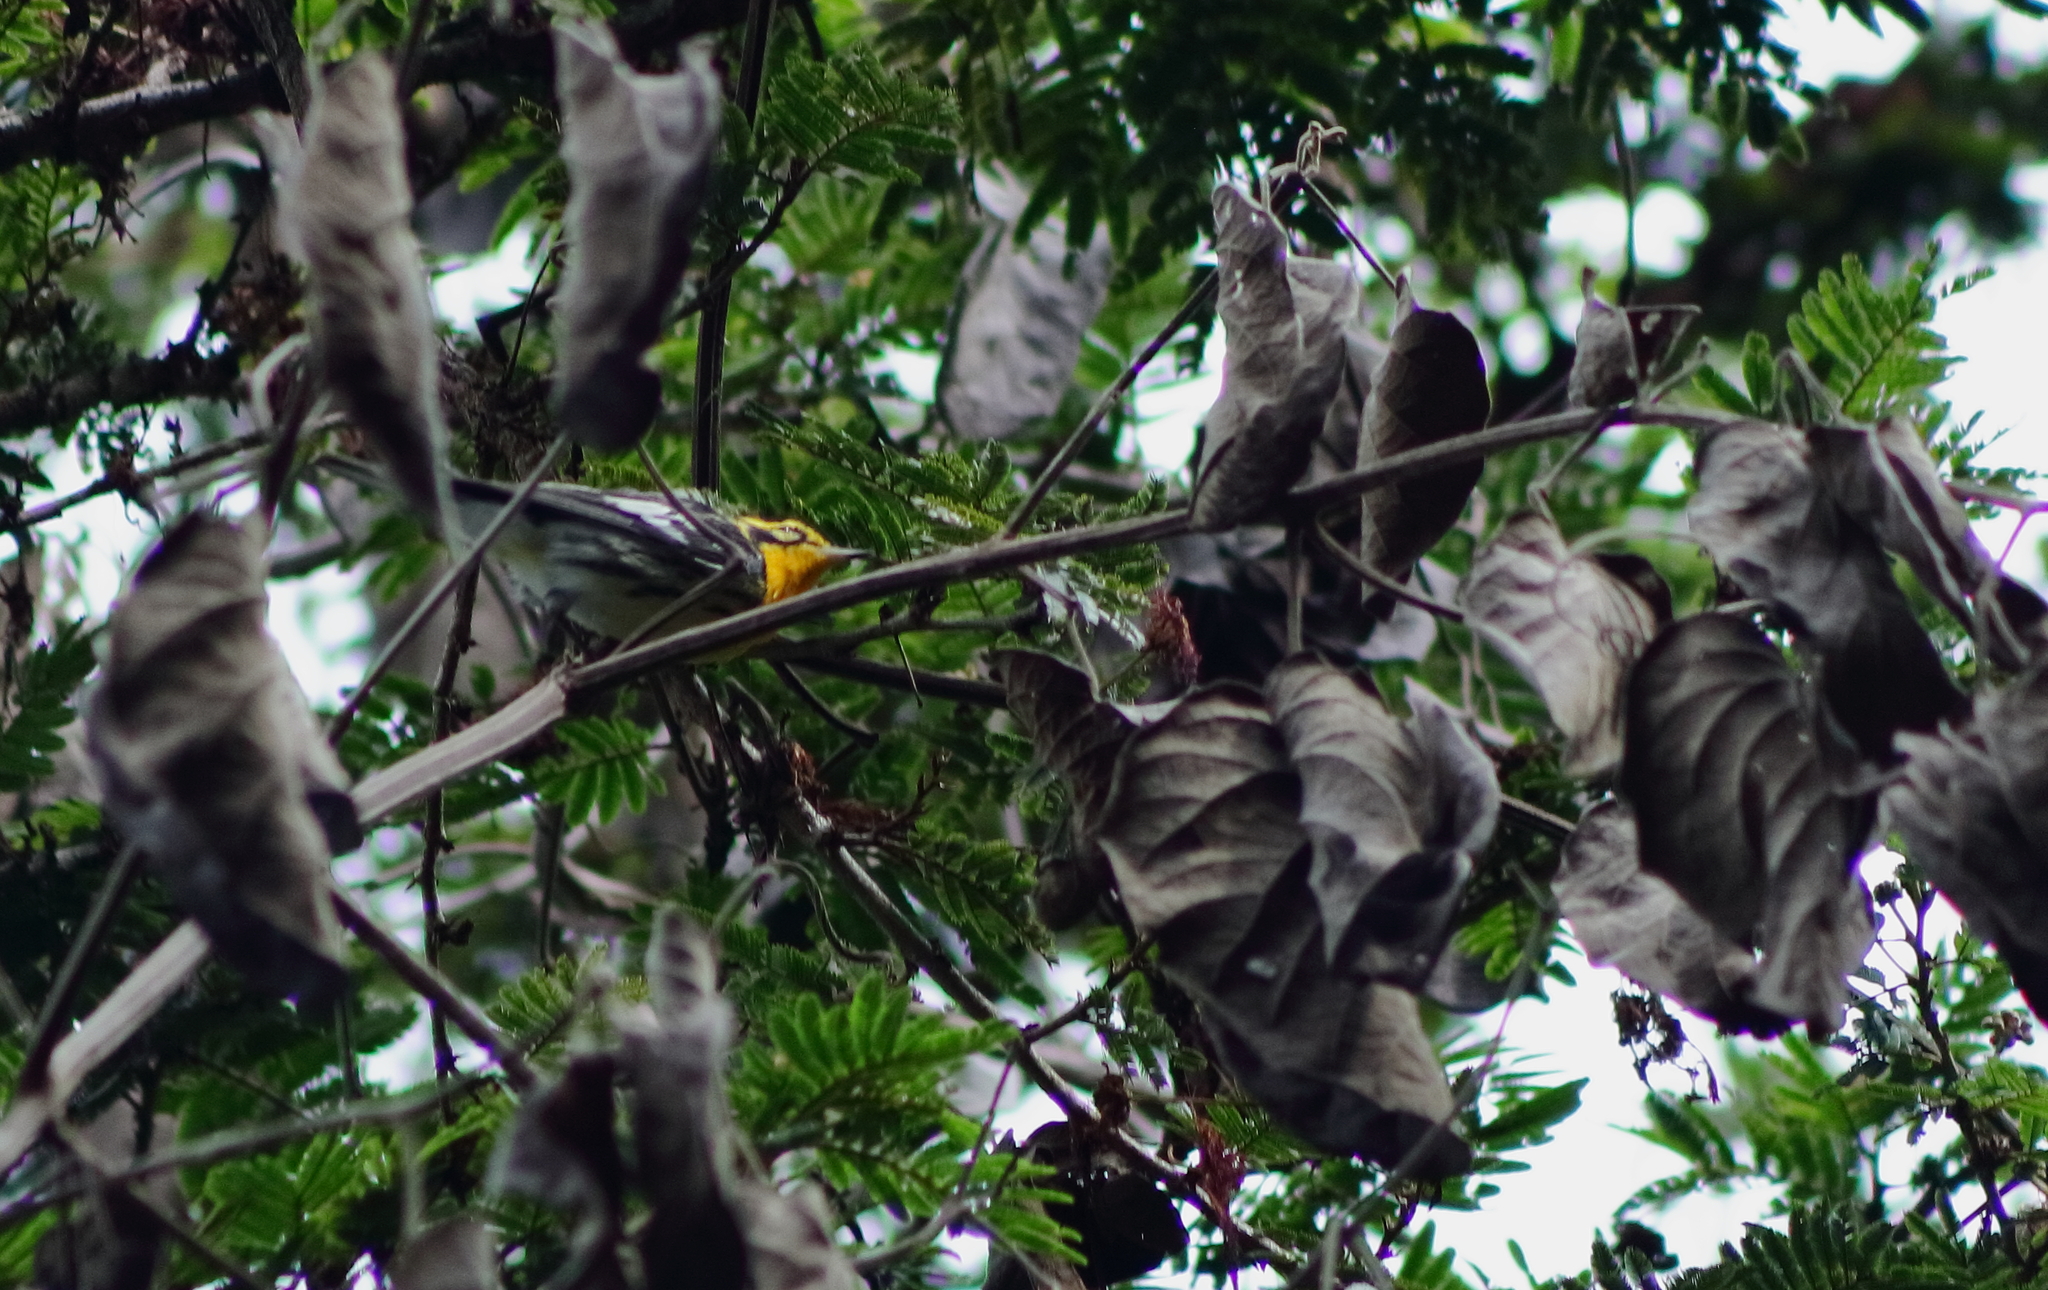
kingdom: Animalia
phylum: Chordata
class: Aves
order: Passeriformes
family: Parulidae
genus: Setophaga
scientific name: Setophaga fusca
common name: Blackburnian warbler
